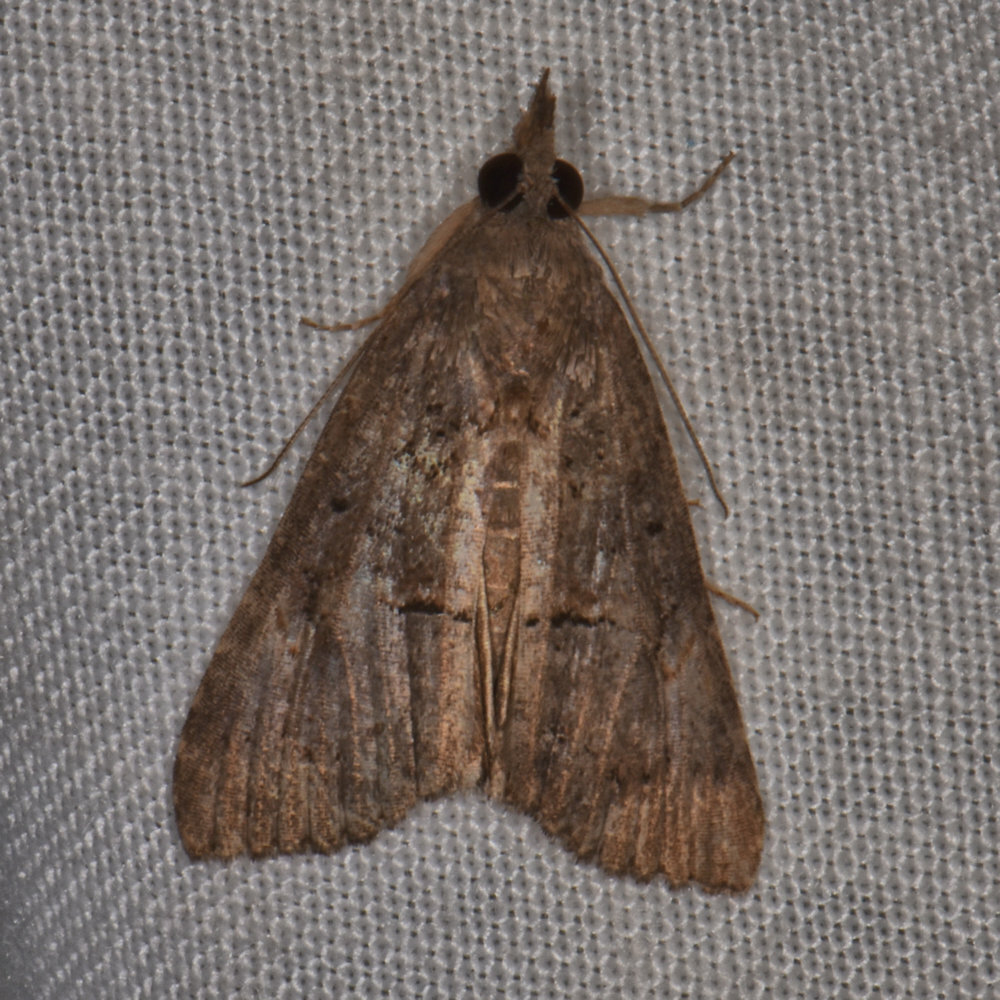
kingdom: Animalia
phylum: Arthropoda
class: Insecta
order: Lepidoptera
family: Erebidae
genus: Hypena
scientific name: Hypena scabra
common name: Green cloverworm
